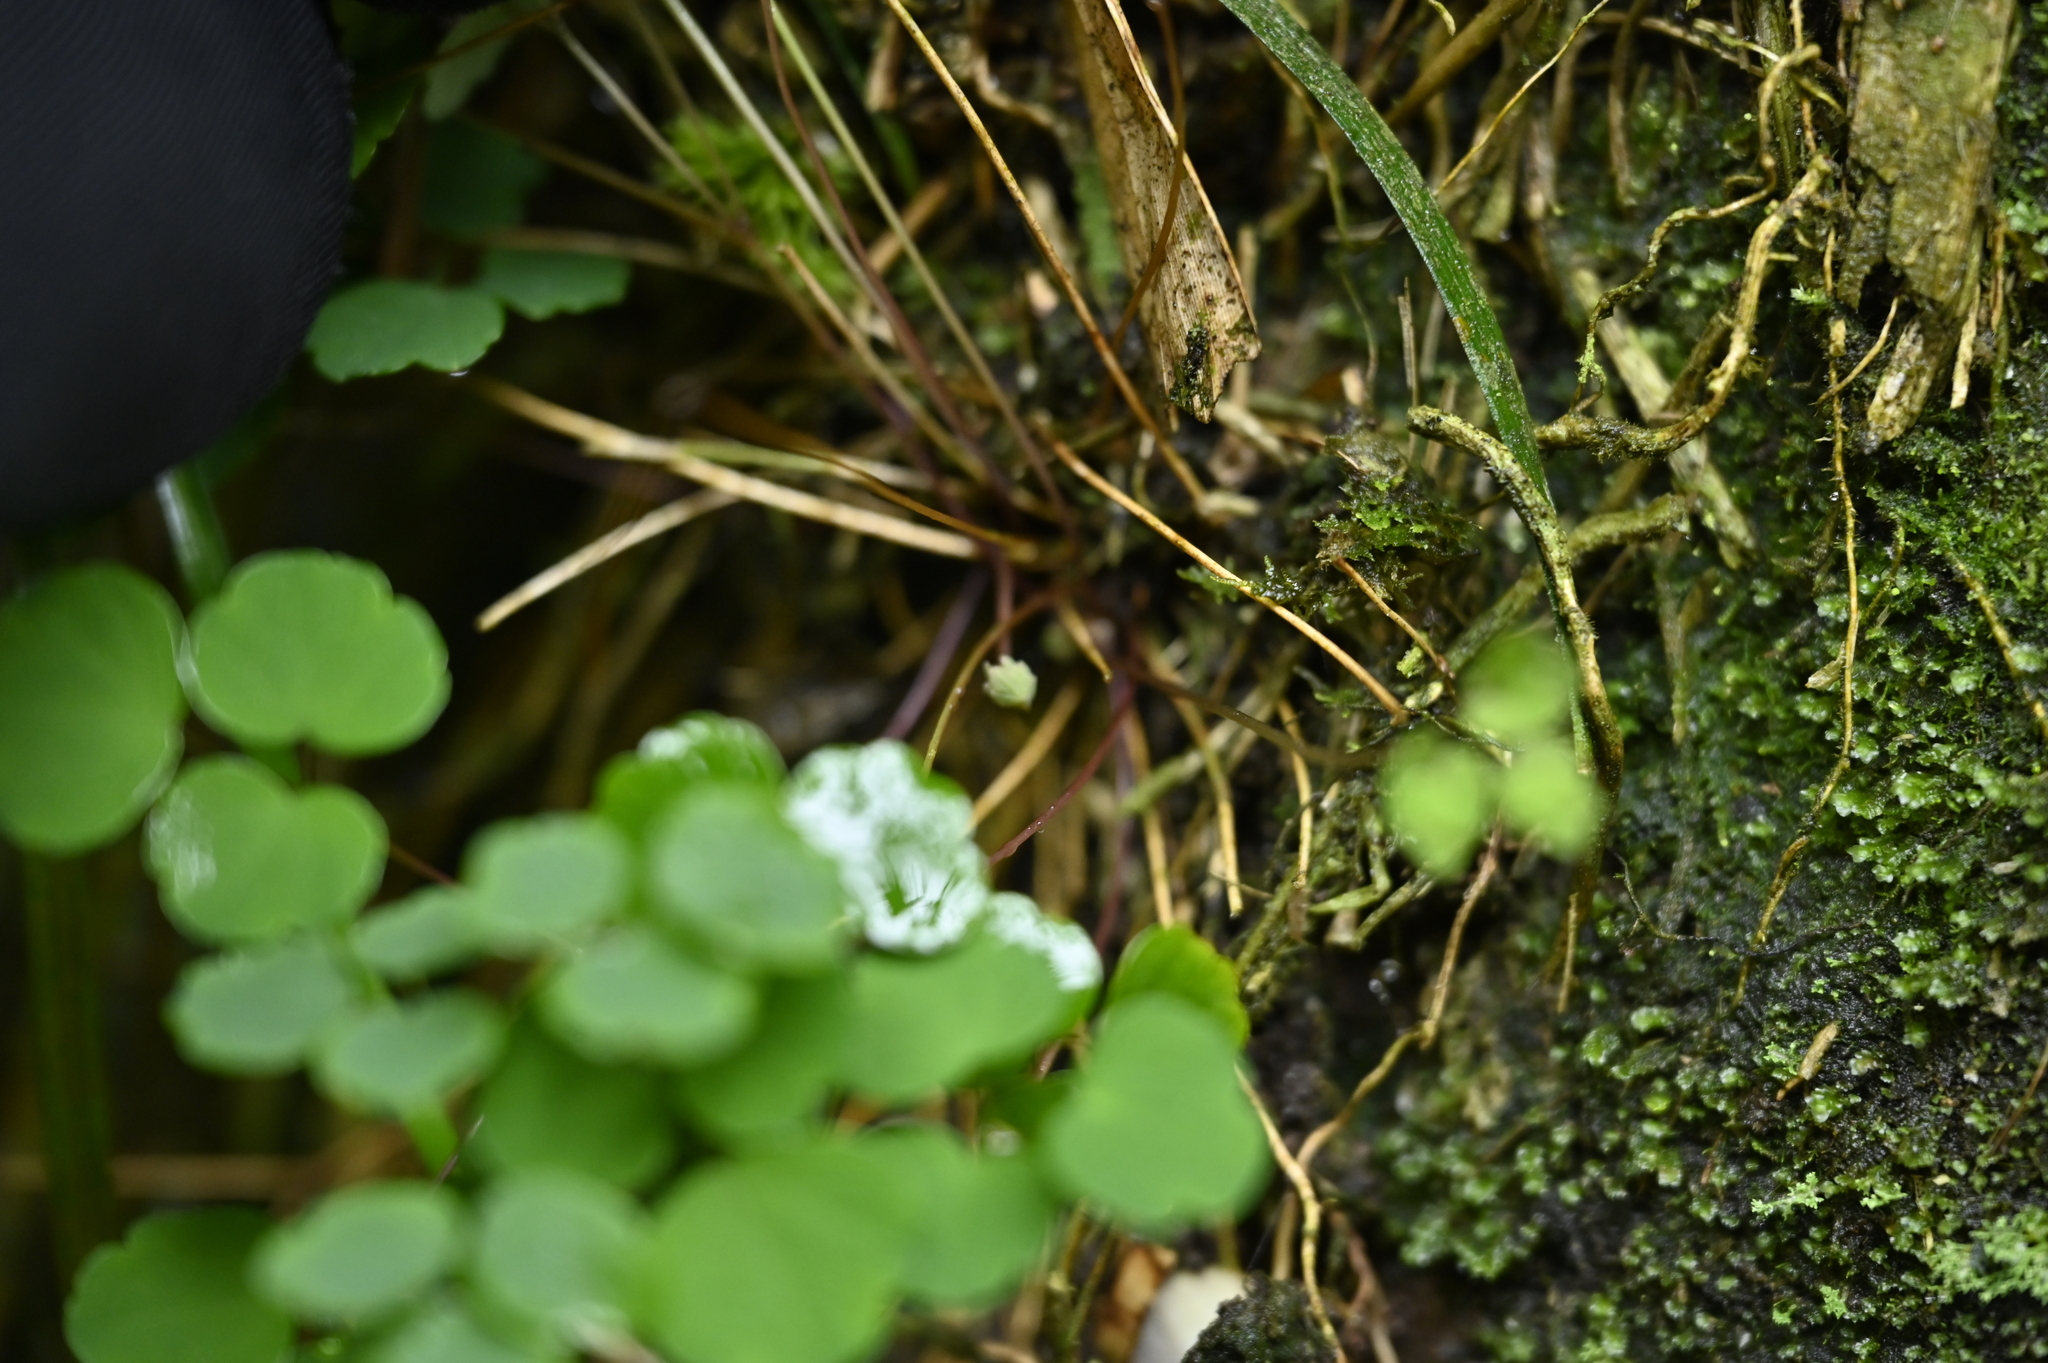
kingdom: Plantae
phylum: Tracheophyta
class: Magnoliopsida
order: Ranunculales
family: Ranunculaceae
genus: Thalictrum
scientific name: Thalictrum urbaini
